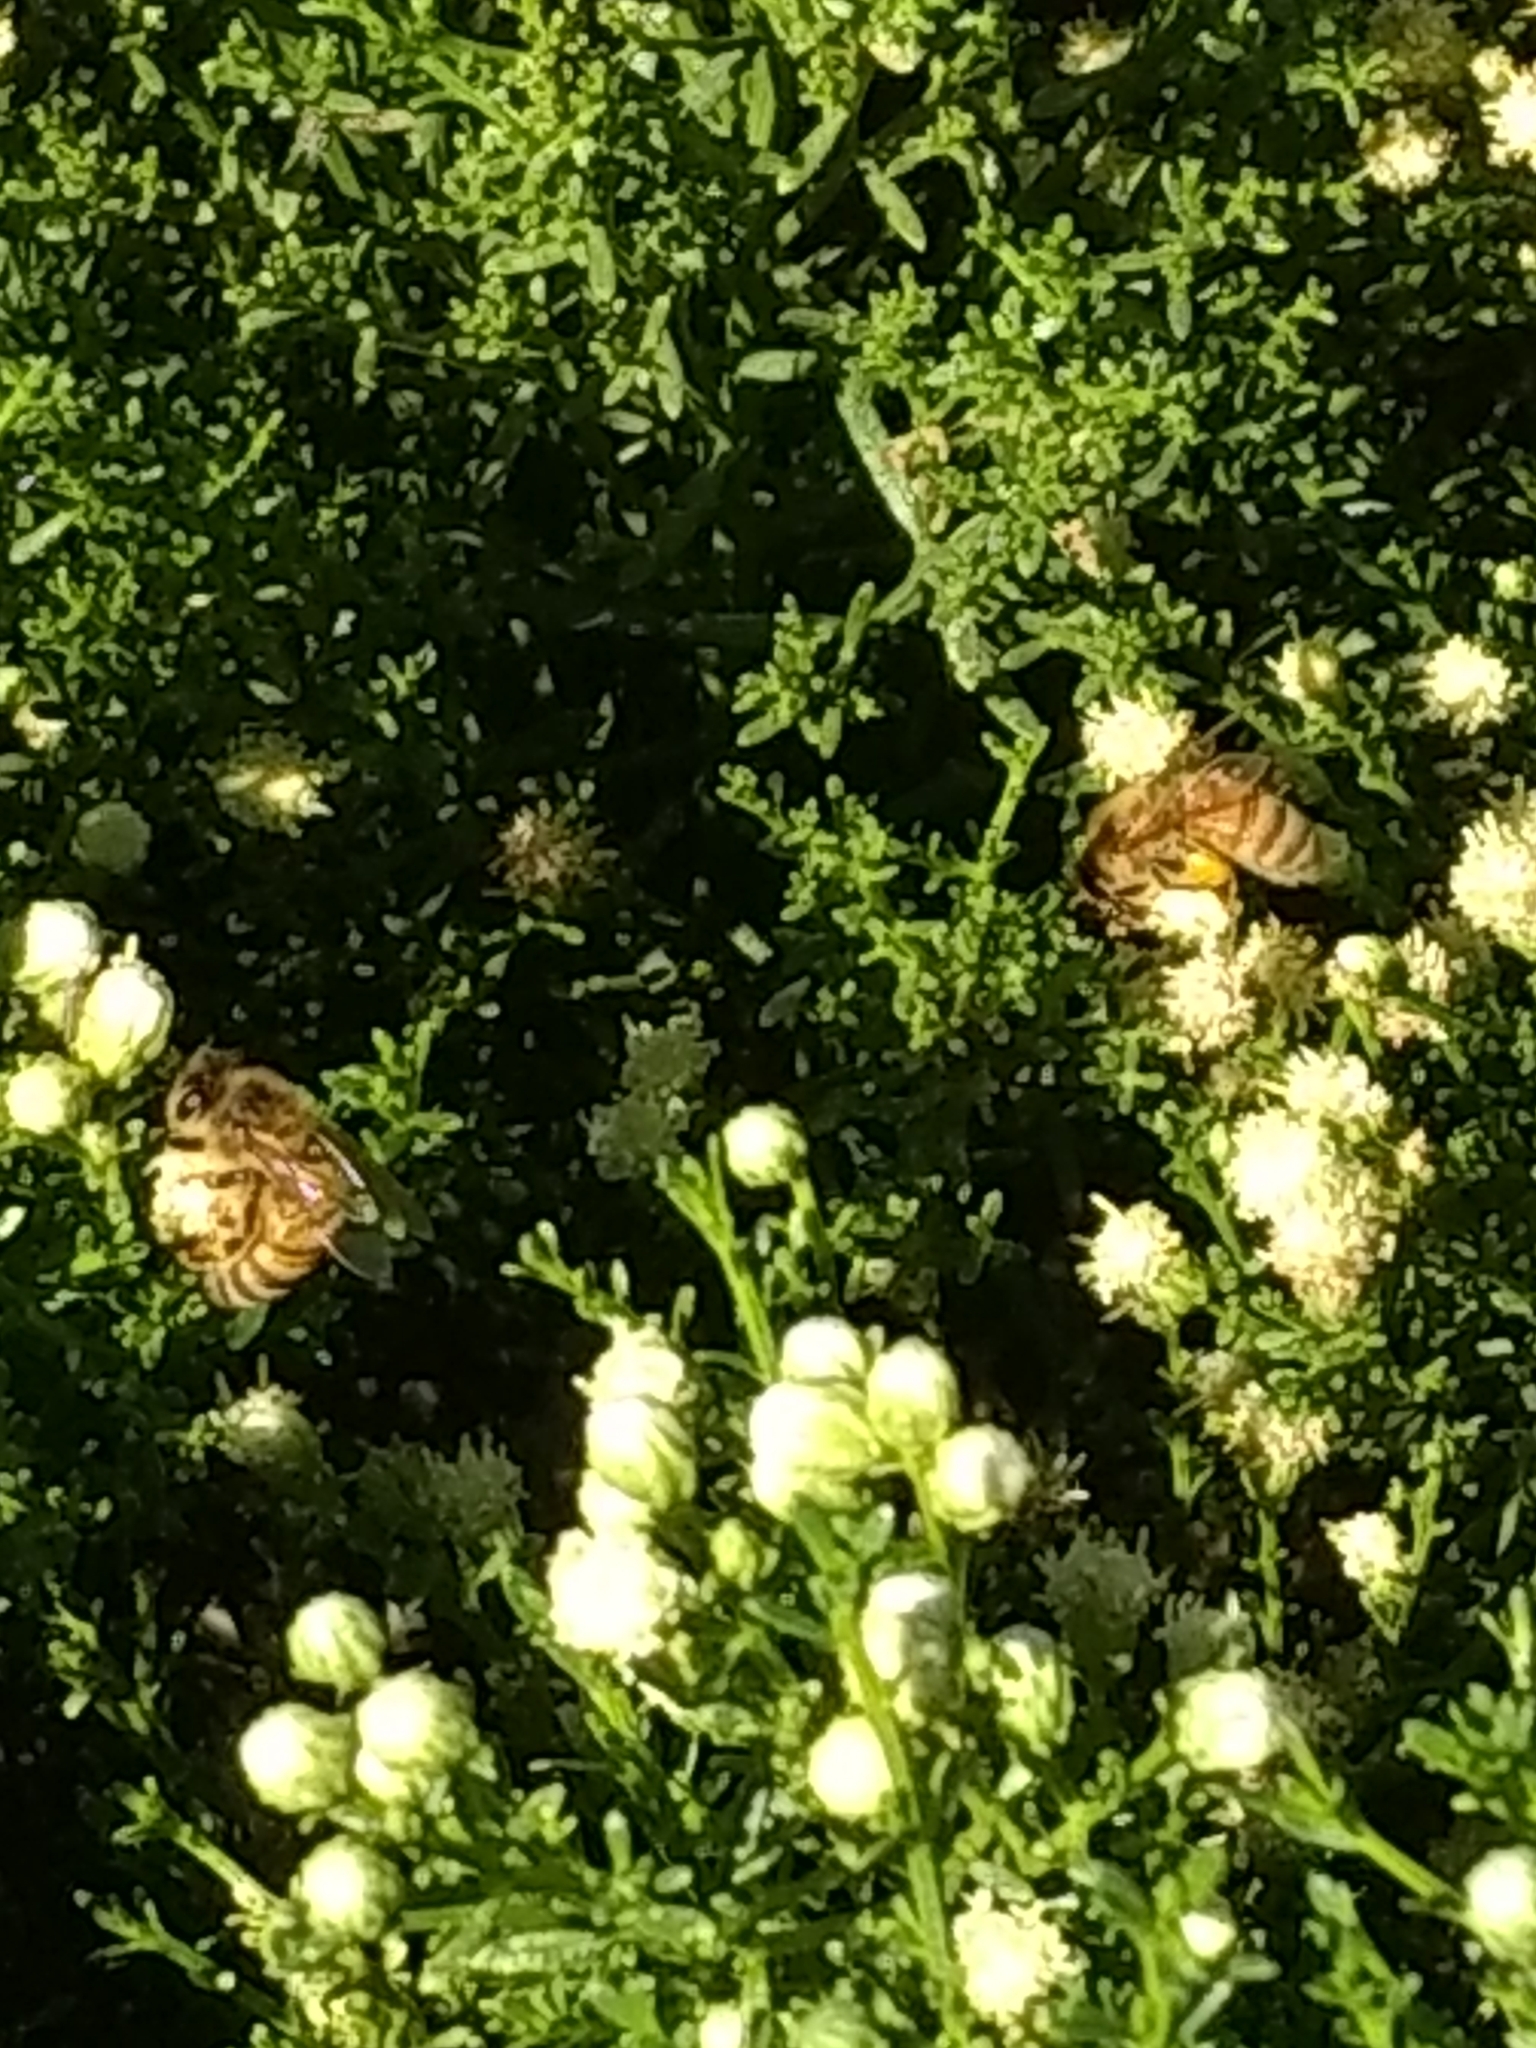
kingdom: Animalia
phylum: Arthropoda
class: Insecta
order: Hymenoptera
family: Apidae
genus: Apis
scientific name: Apis mellifera
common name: Honey bee
